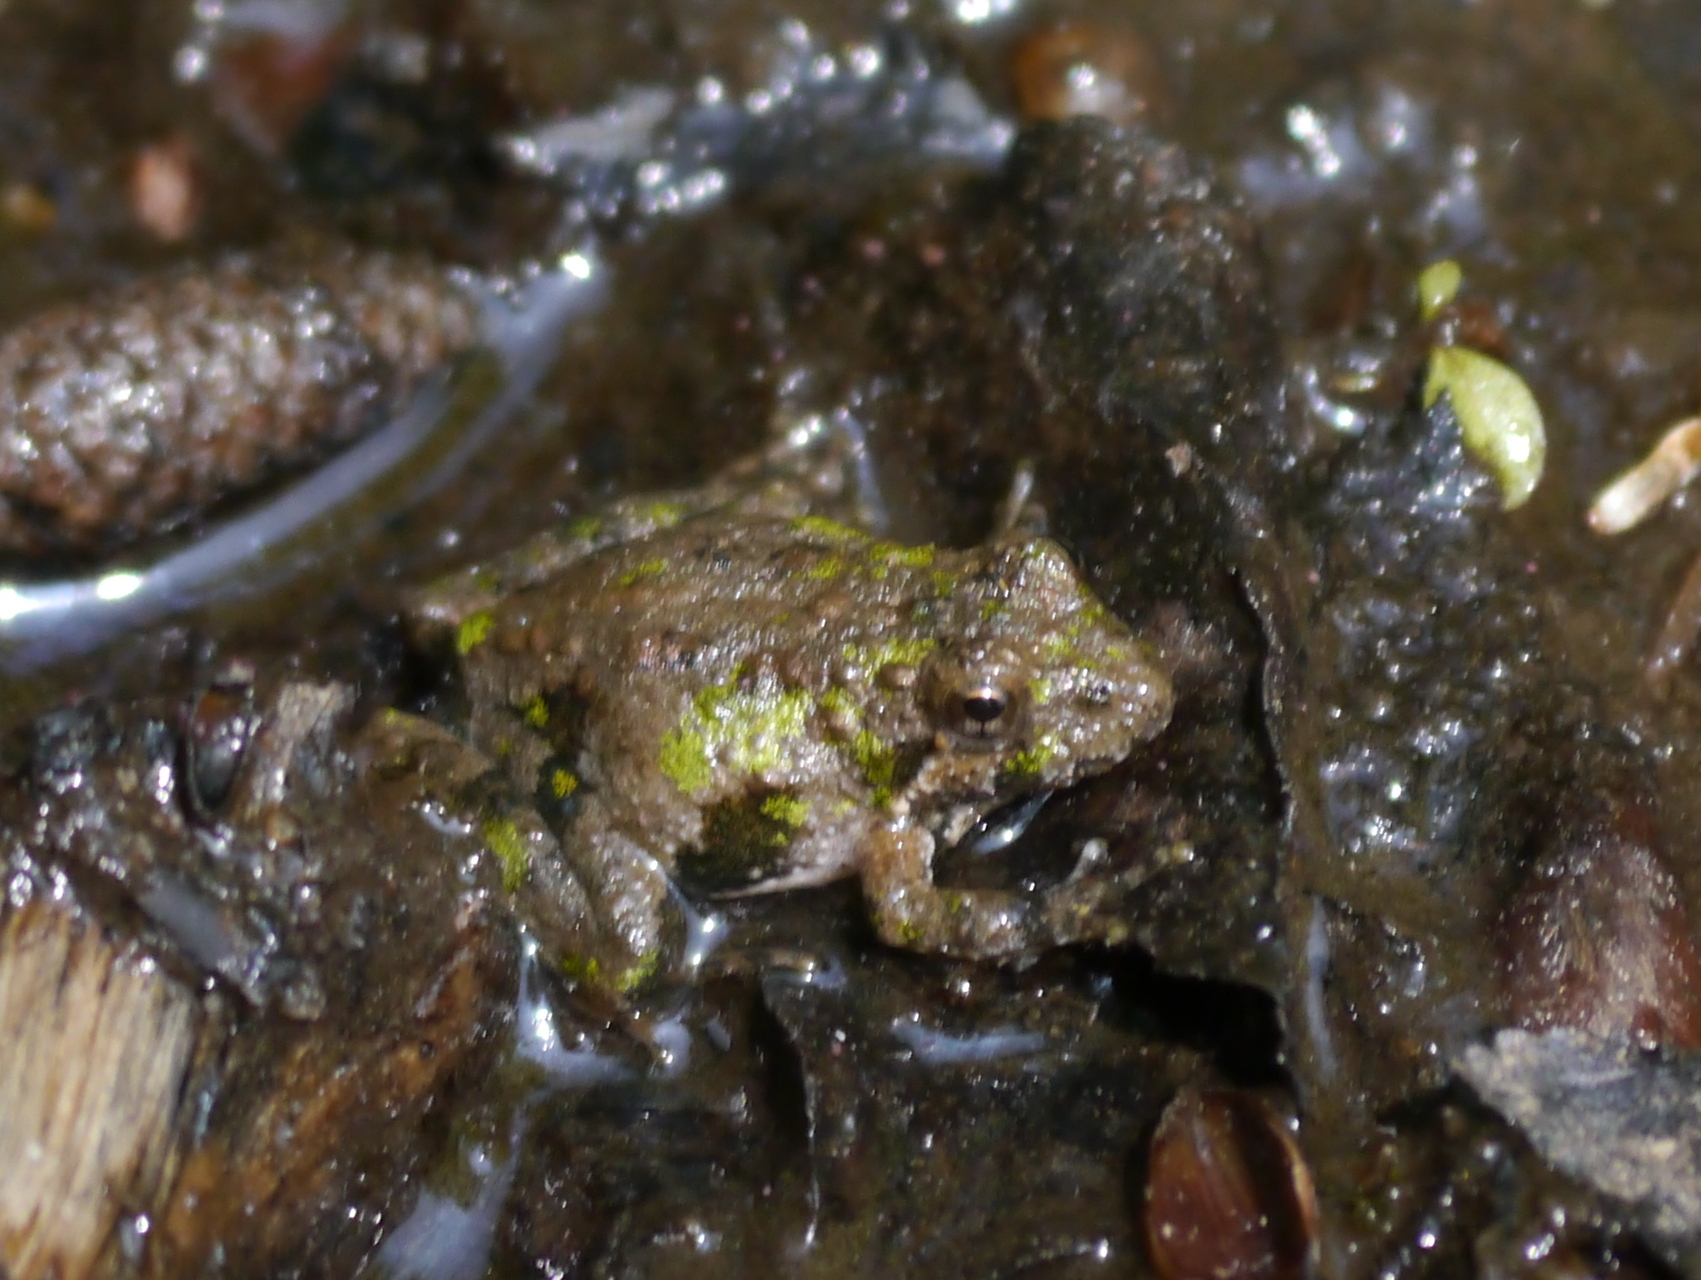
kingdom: Animalia
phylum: Chordata
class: Amphibia
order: Anura
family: Hylidae
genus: Acris
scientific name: Acris crepitans
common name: Northern cricket frog
